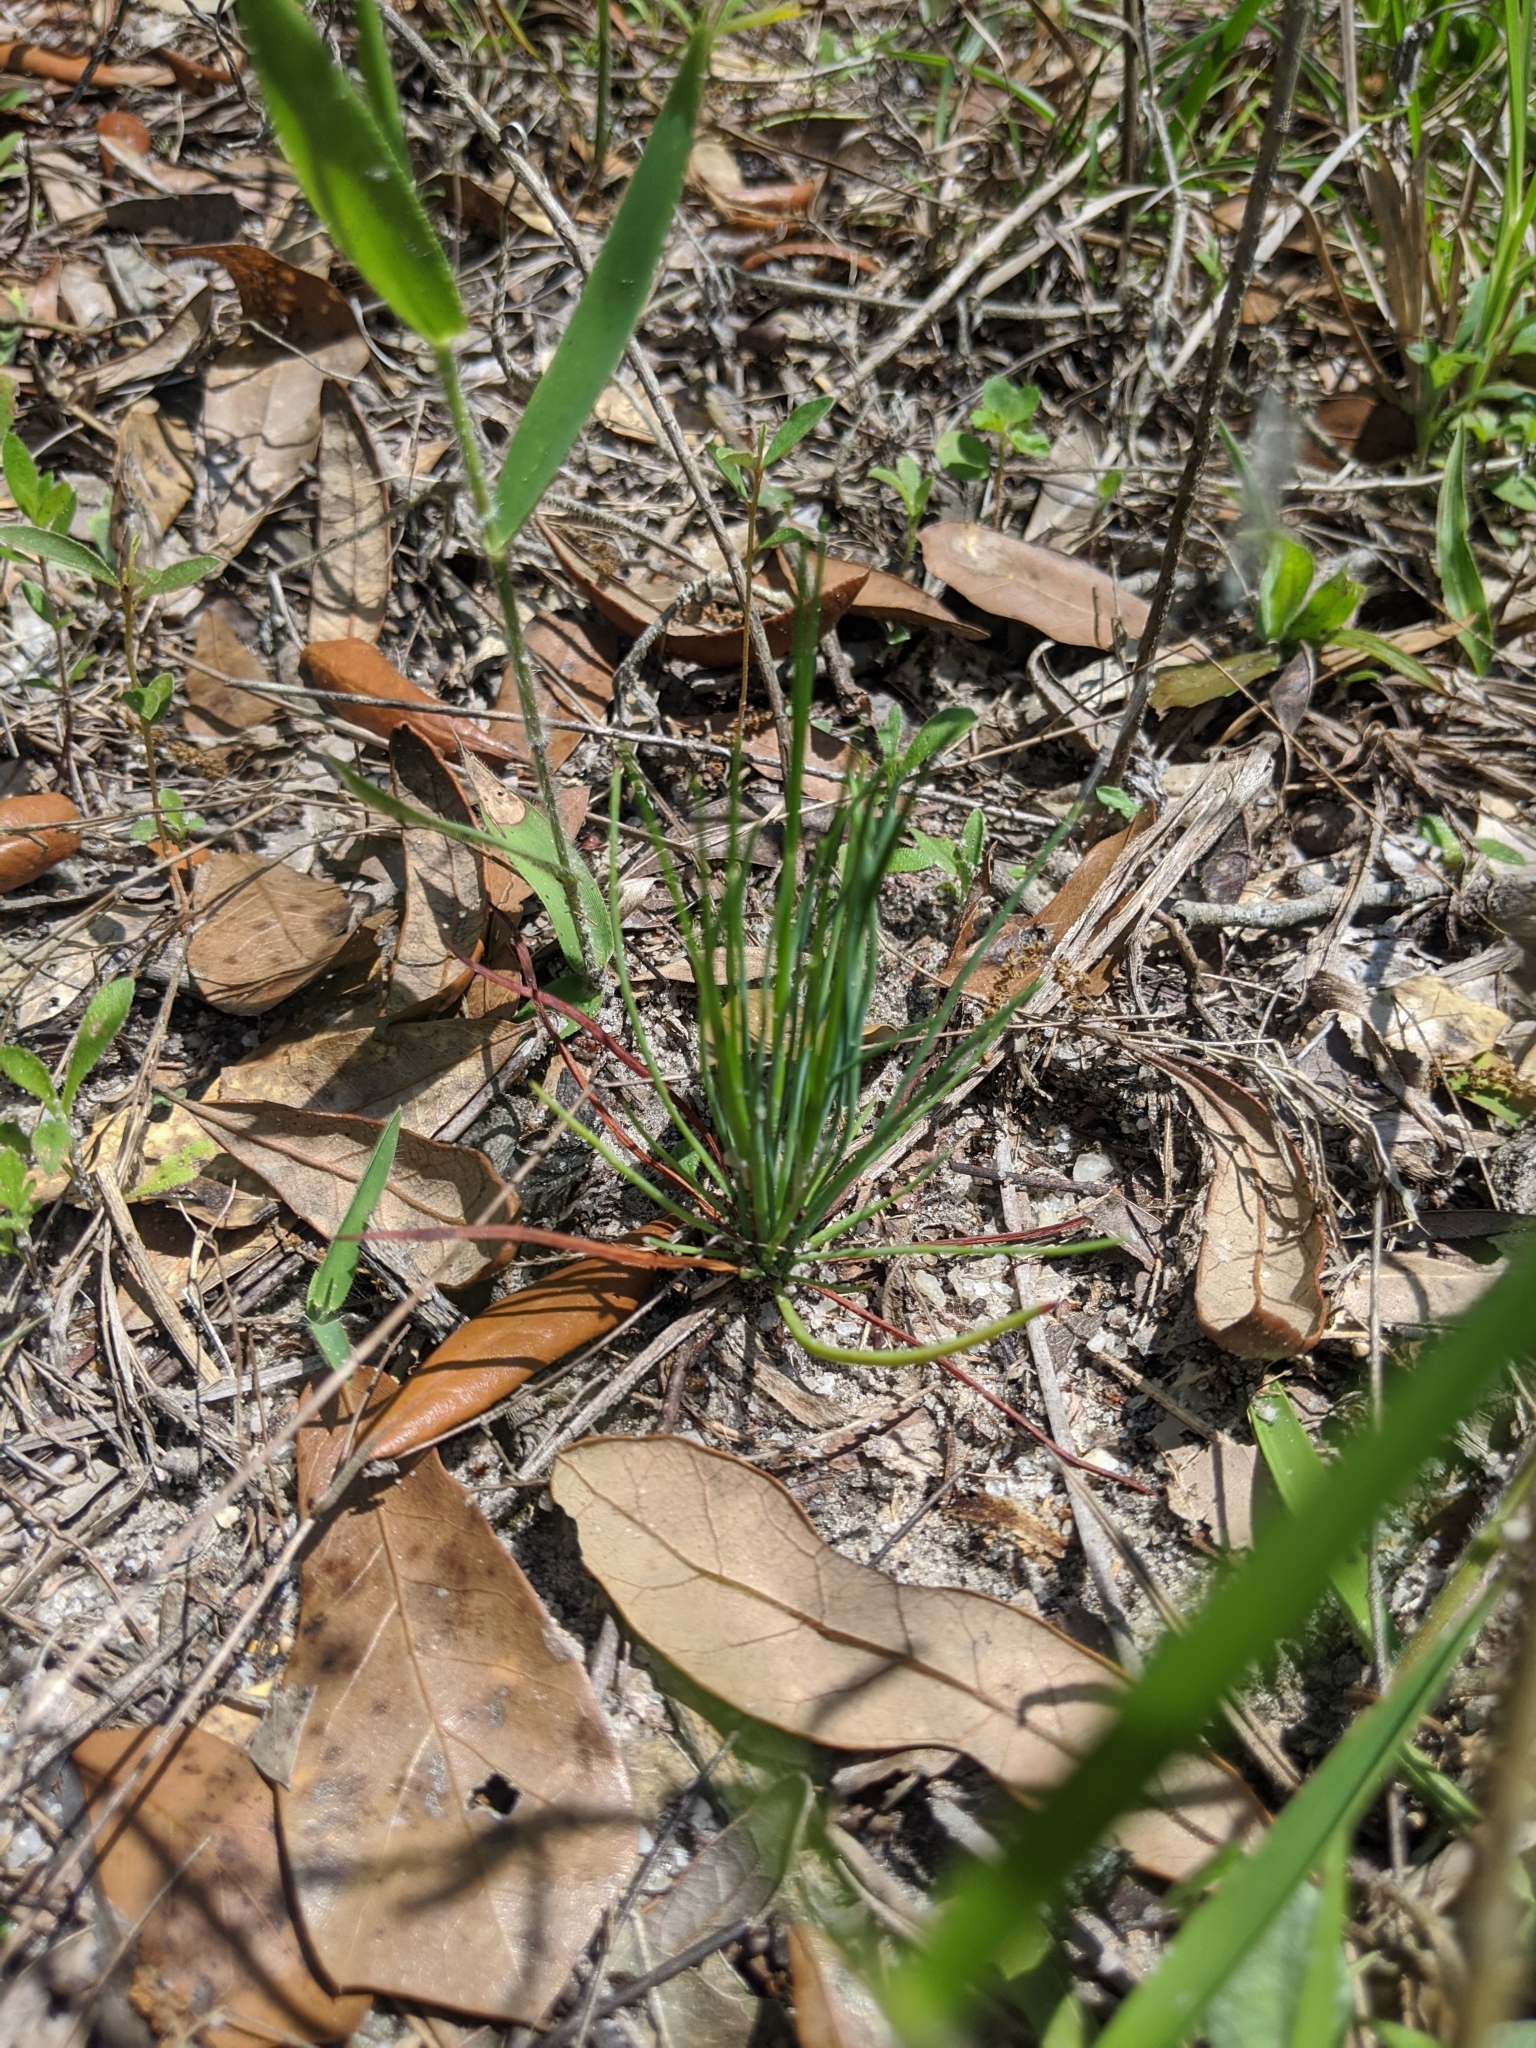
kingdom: Plantae
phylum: Tracheophyta
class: Pinopsida
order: Pinales
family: Pinaceae
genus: Pinus
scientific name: Pinus palustris
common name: Longleaf pine
